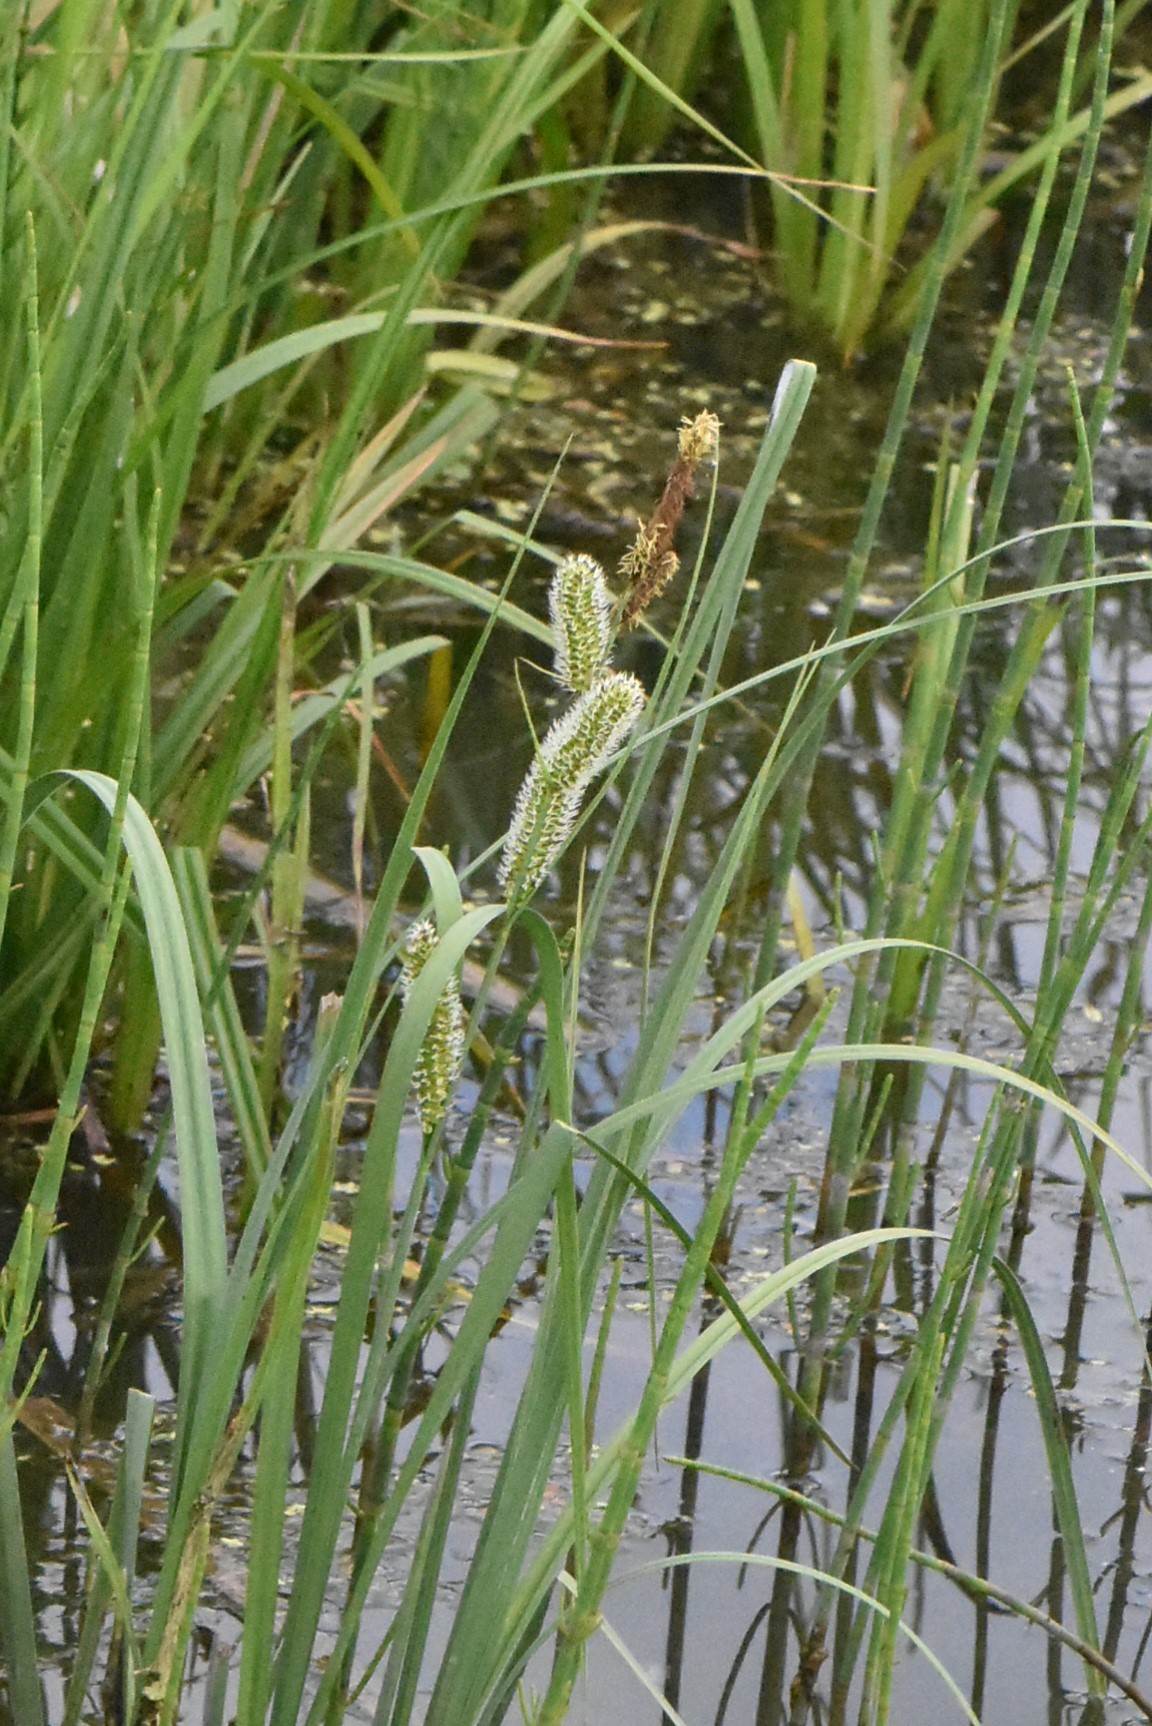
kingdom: Plantae
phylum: Tracheophyta
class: Liliopsida
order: Poales
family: Cyperaceae
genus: Carex
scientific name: Carex rostrata
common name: Bottle sedge
